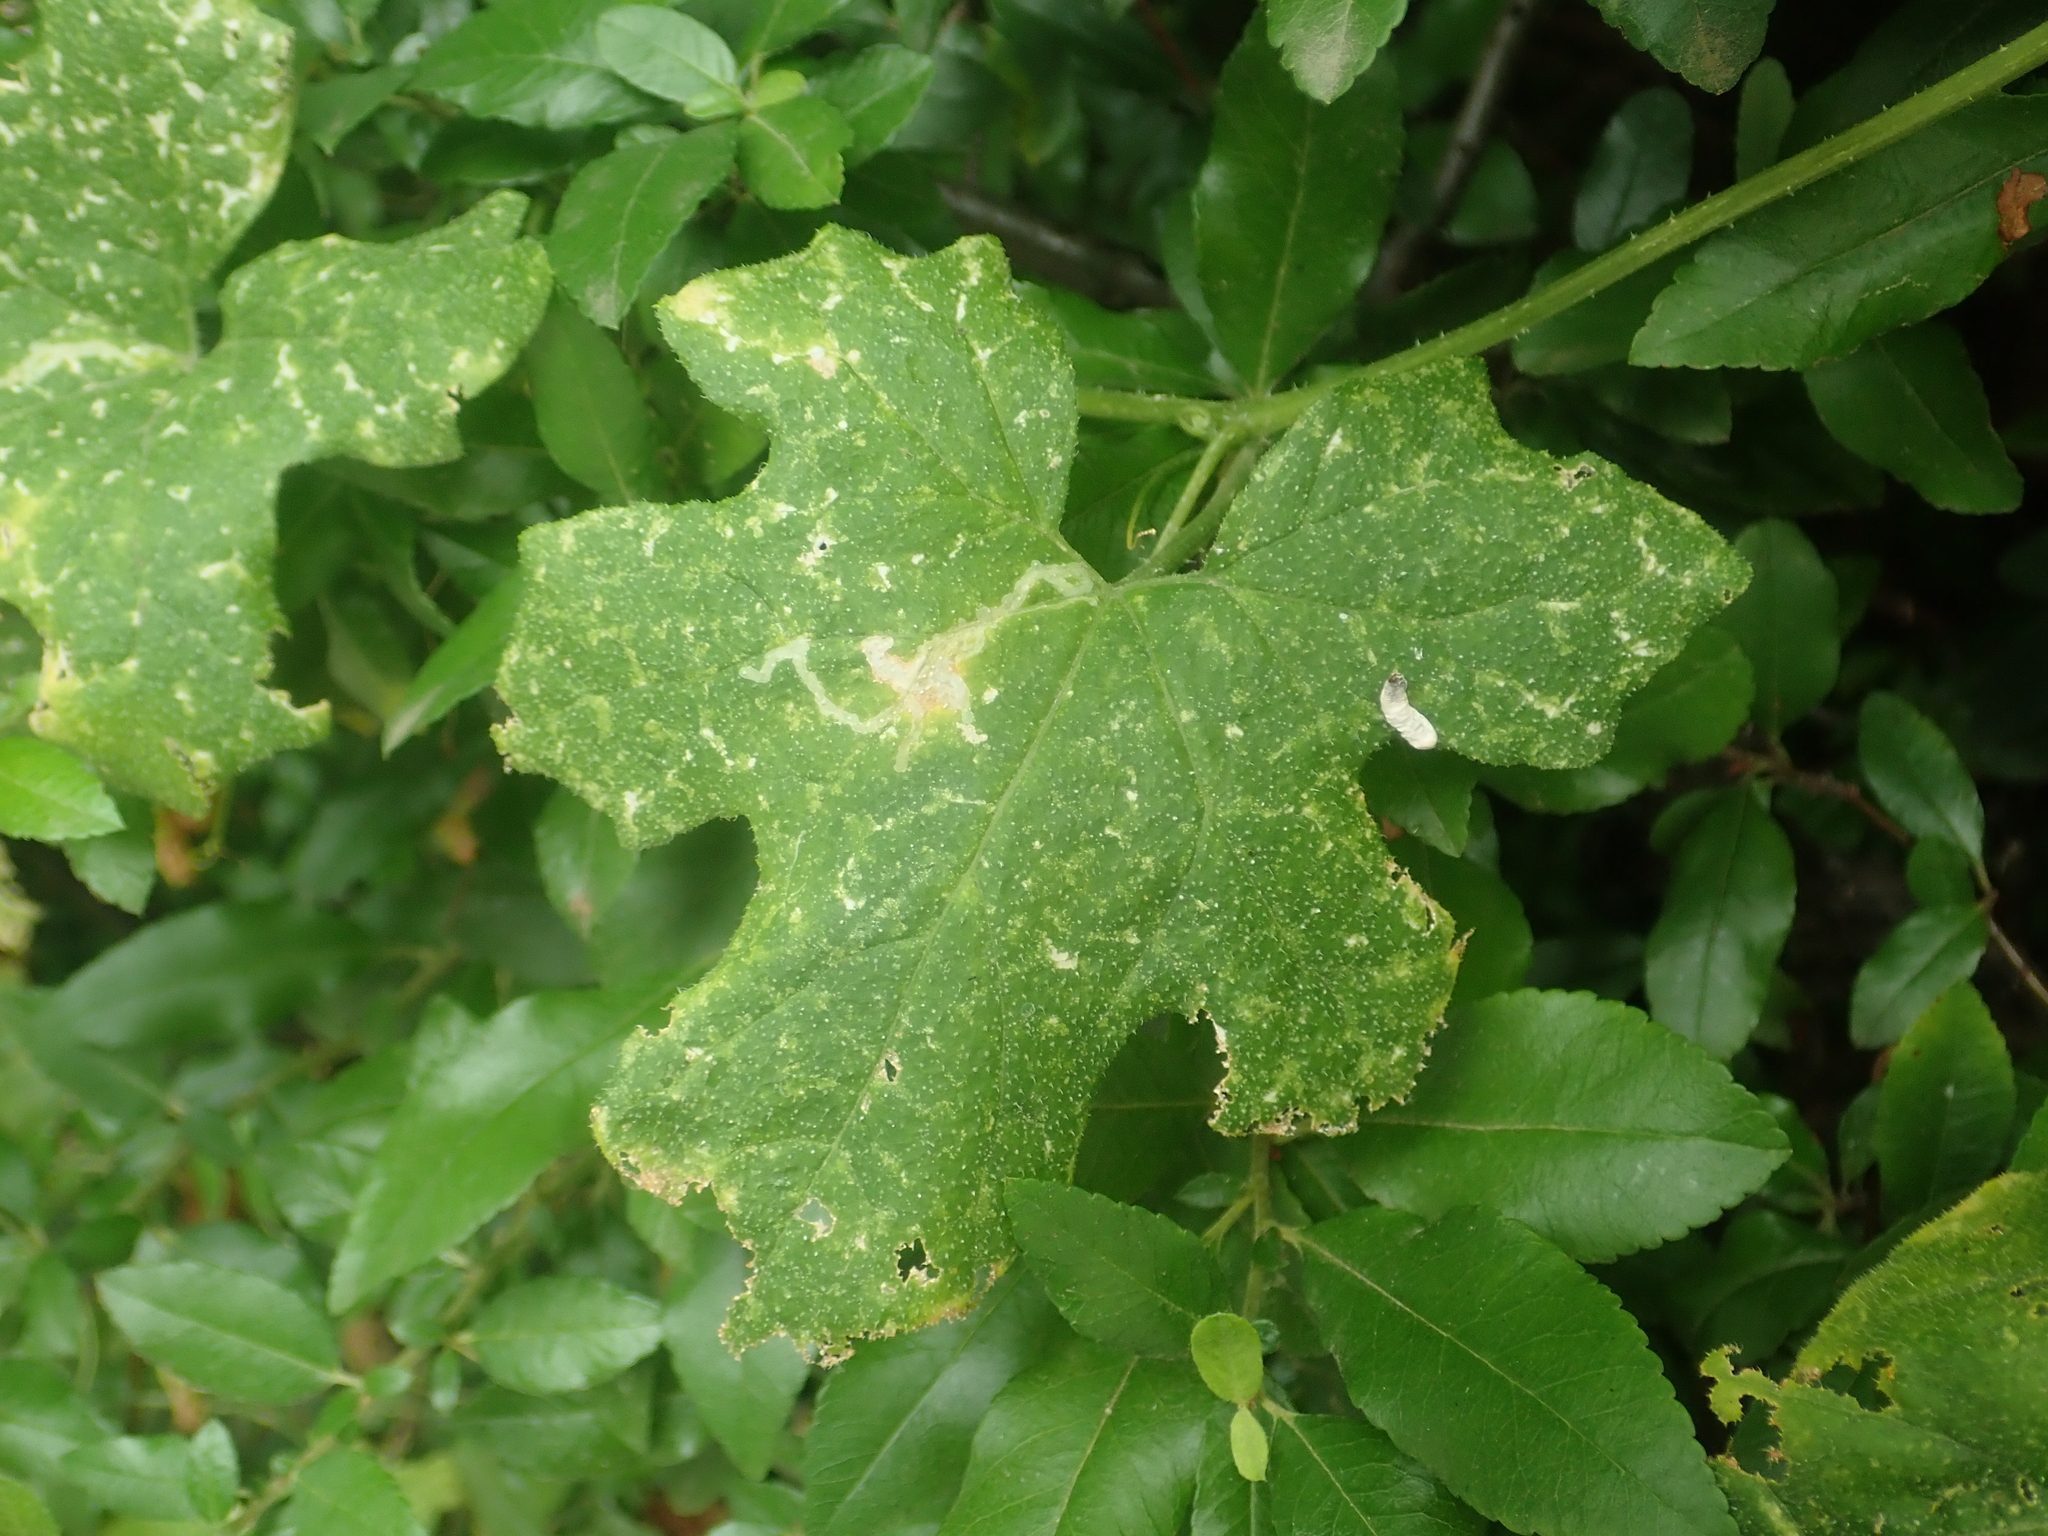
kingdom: Plantae
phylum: Tracheophyta
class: Magnoliopsida
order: Cucurbitales
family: Cucurbitaceae
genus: Bryonia
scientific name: Bryonia cretica
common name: Cretan bryony
